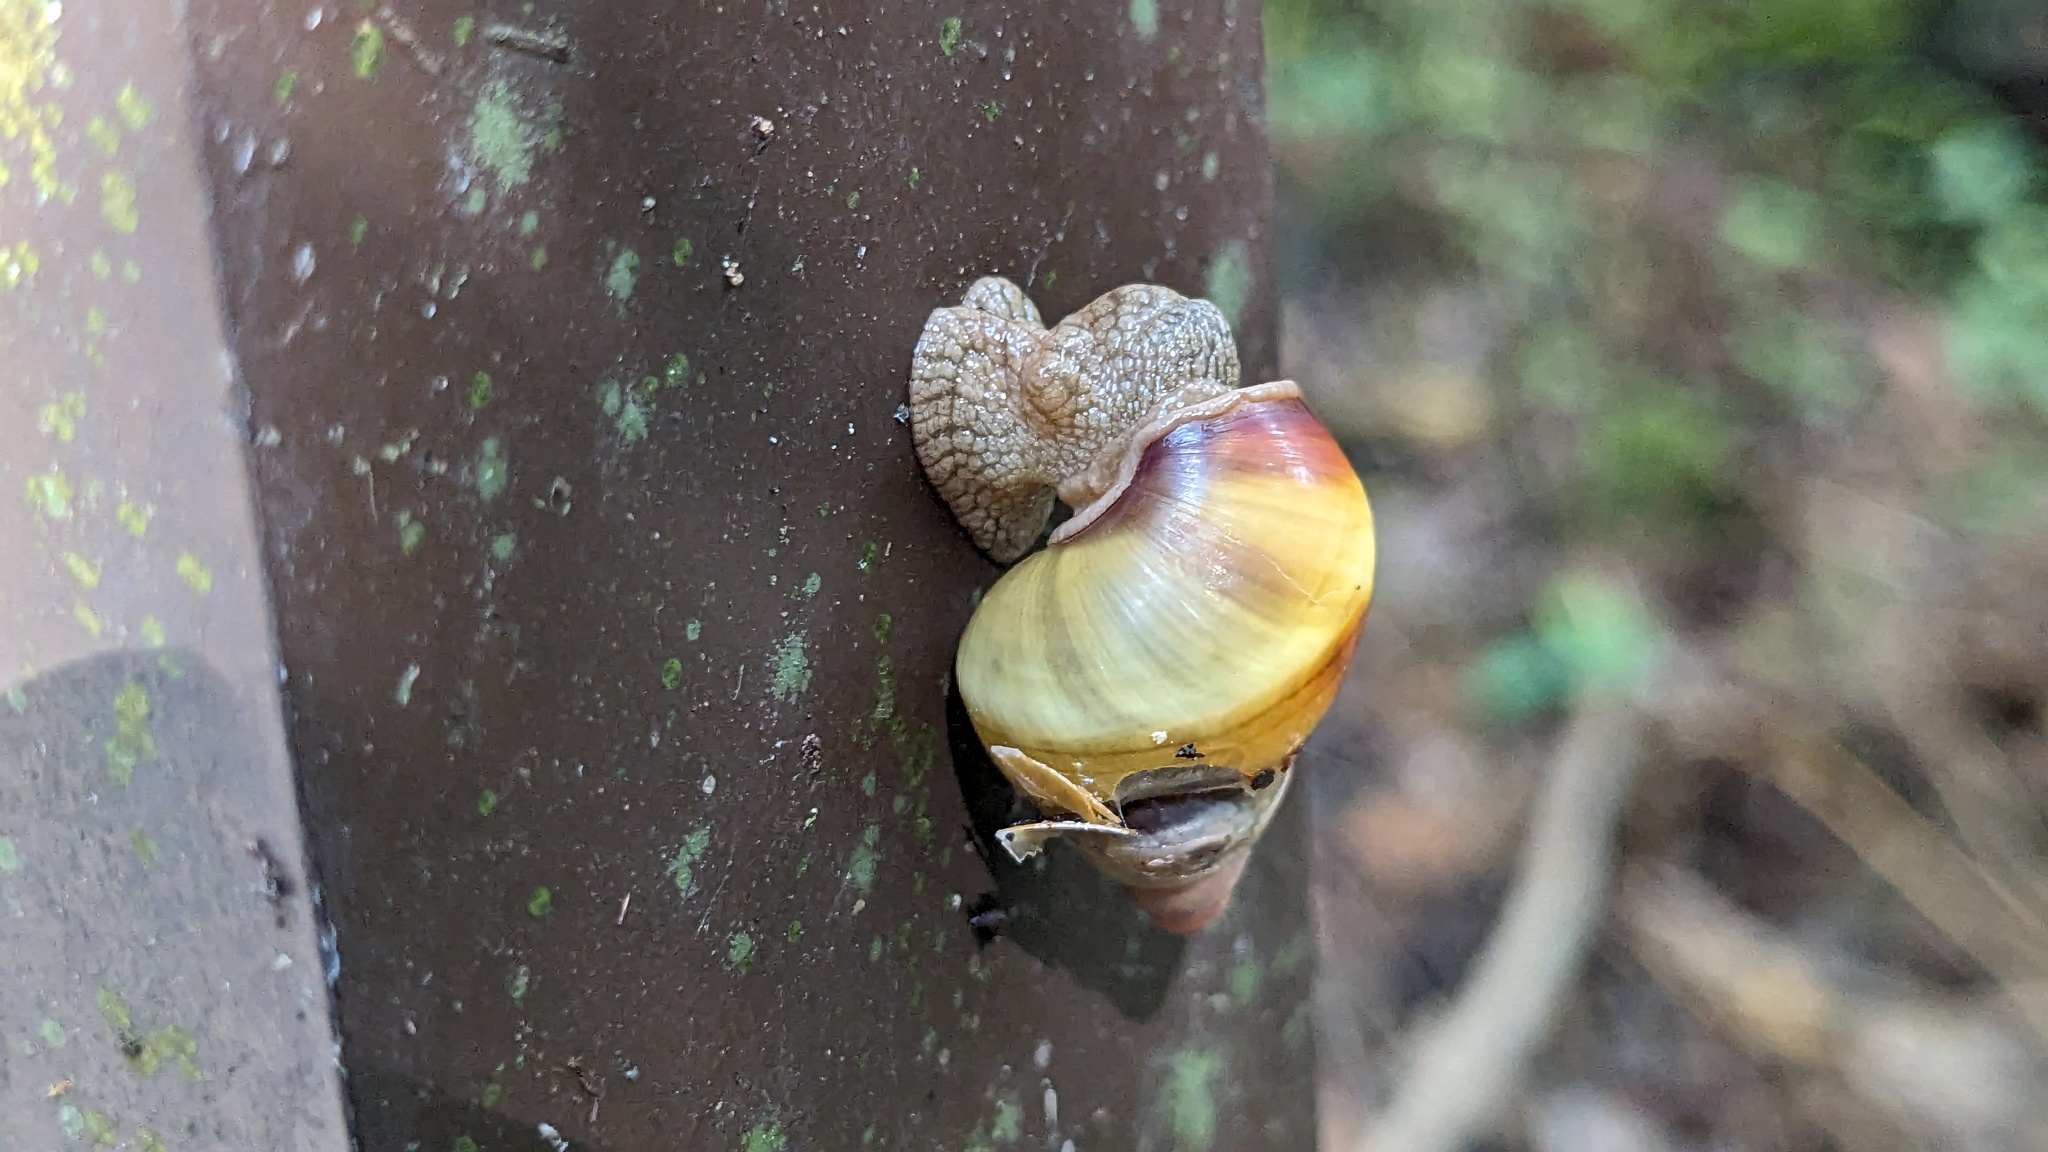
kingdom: Animalia
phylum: Mollusca
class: Gastropoda
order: Stylommatophora
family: Orthalicidae
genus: Liguus
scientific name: Liguus fasciatus
